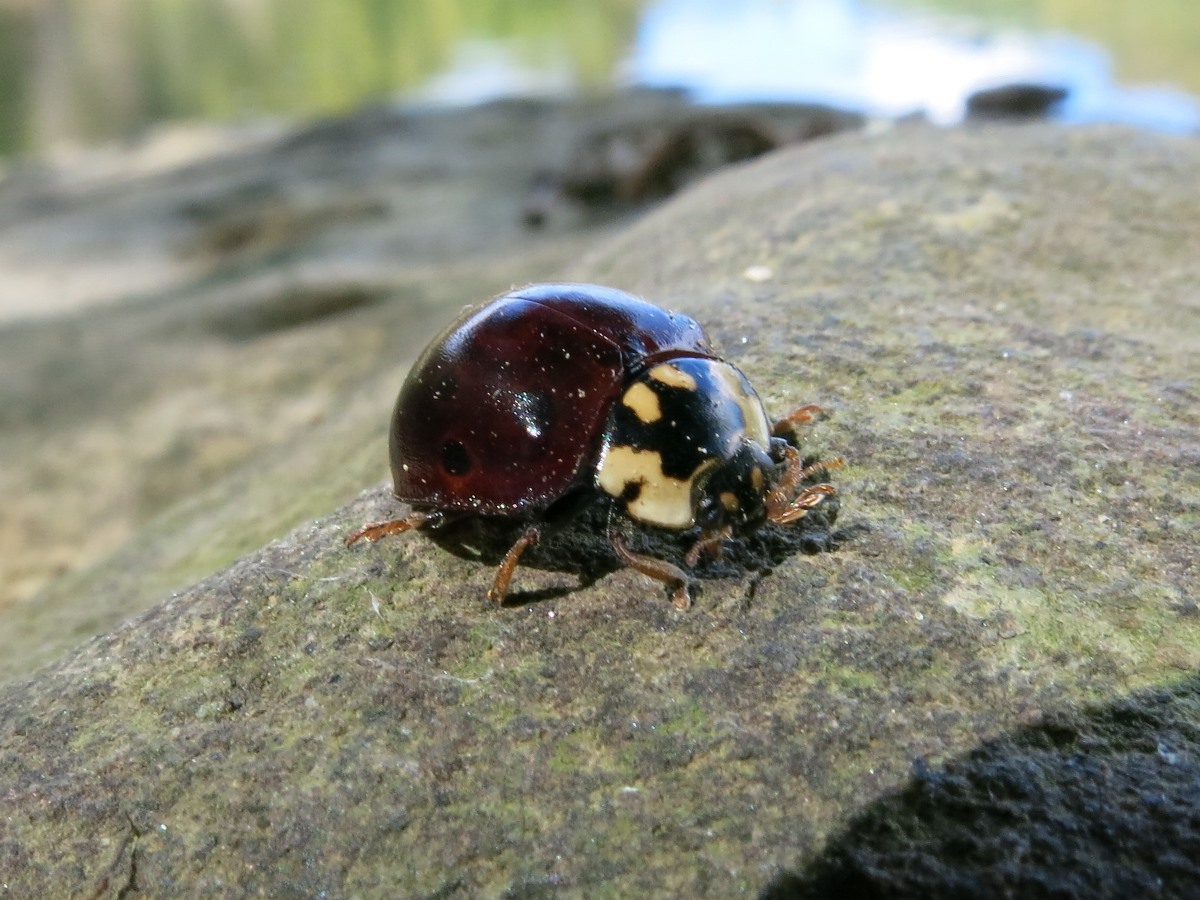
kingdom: Animalia
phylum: Arthropoda
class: Insecta
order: Coleoptera
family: Coccinellidae
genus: Anatis
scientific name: Anatis mali
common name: Eye-spotted lady beetle
